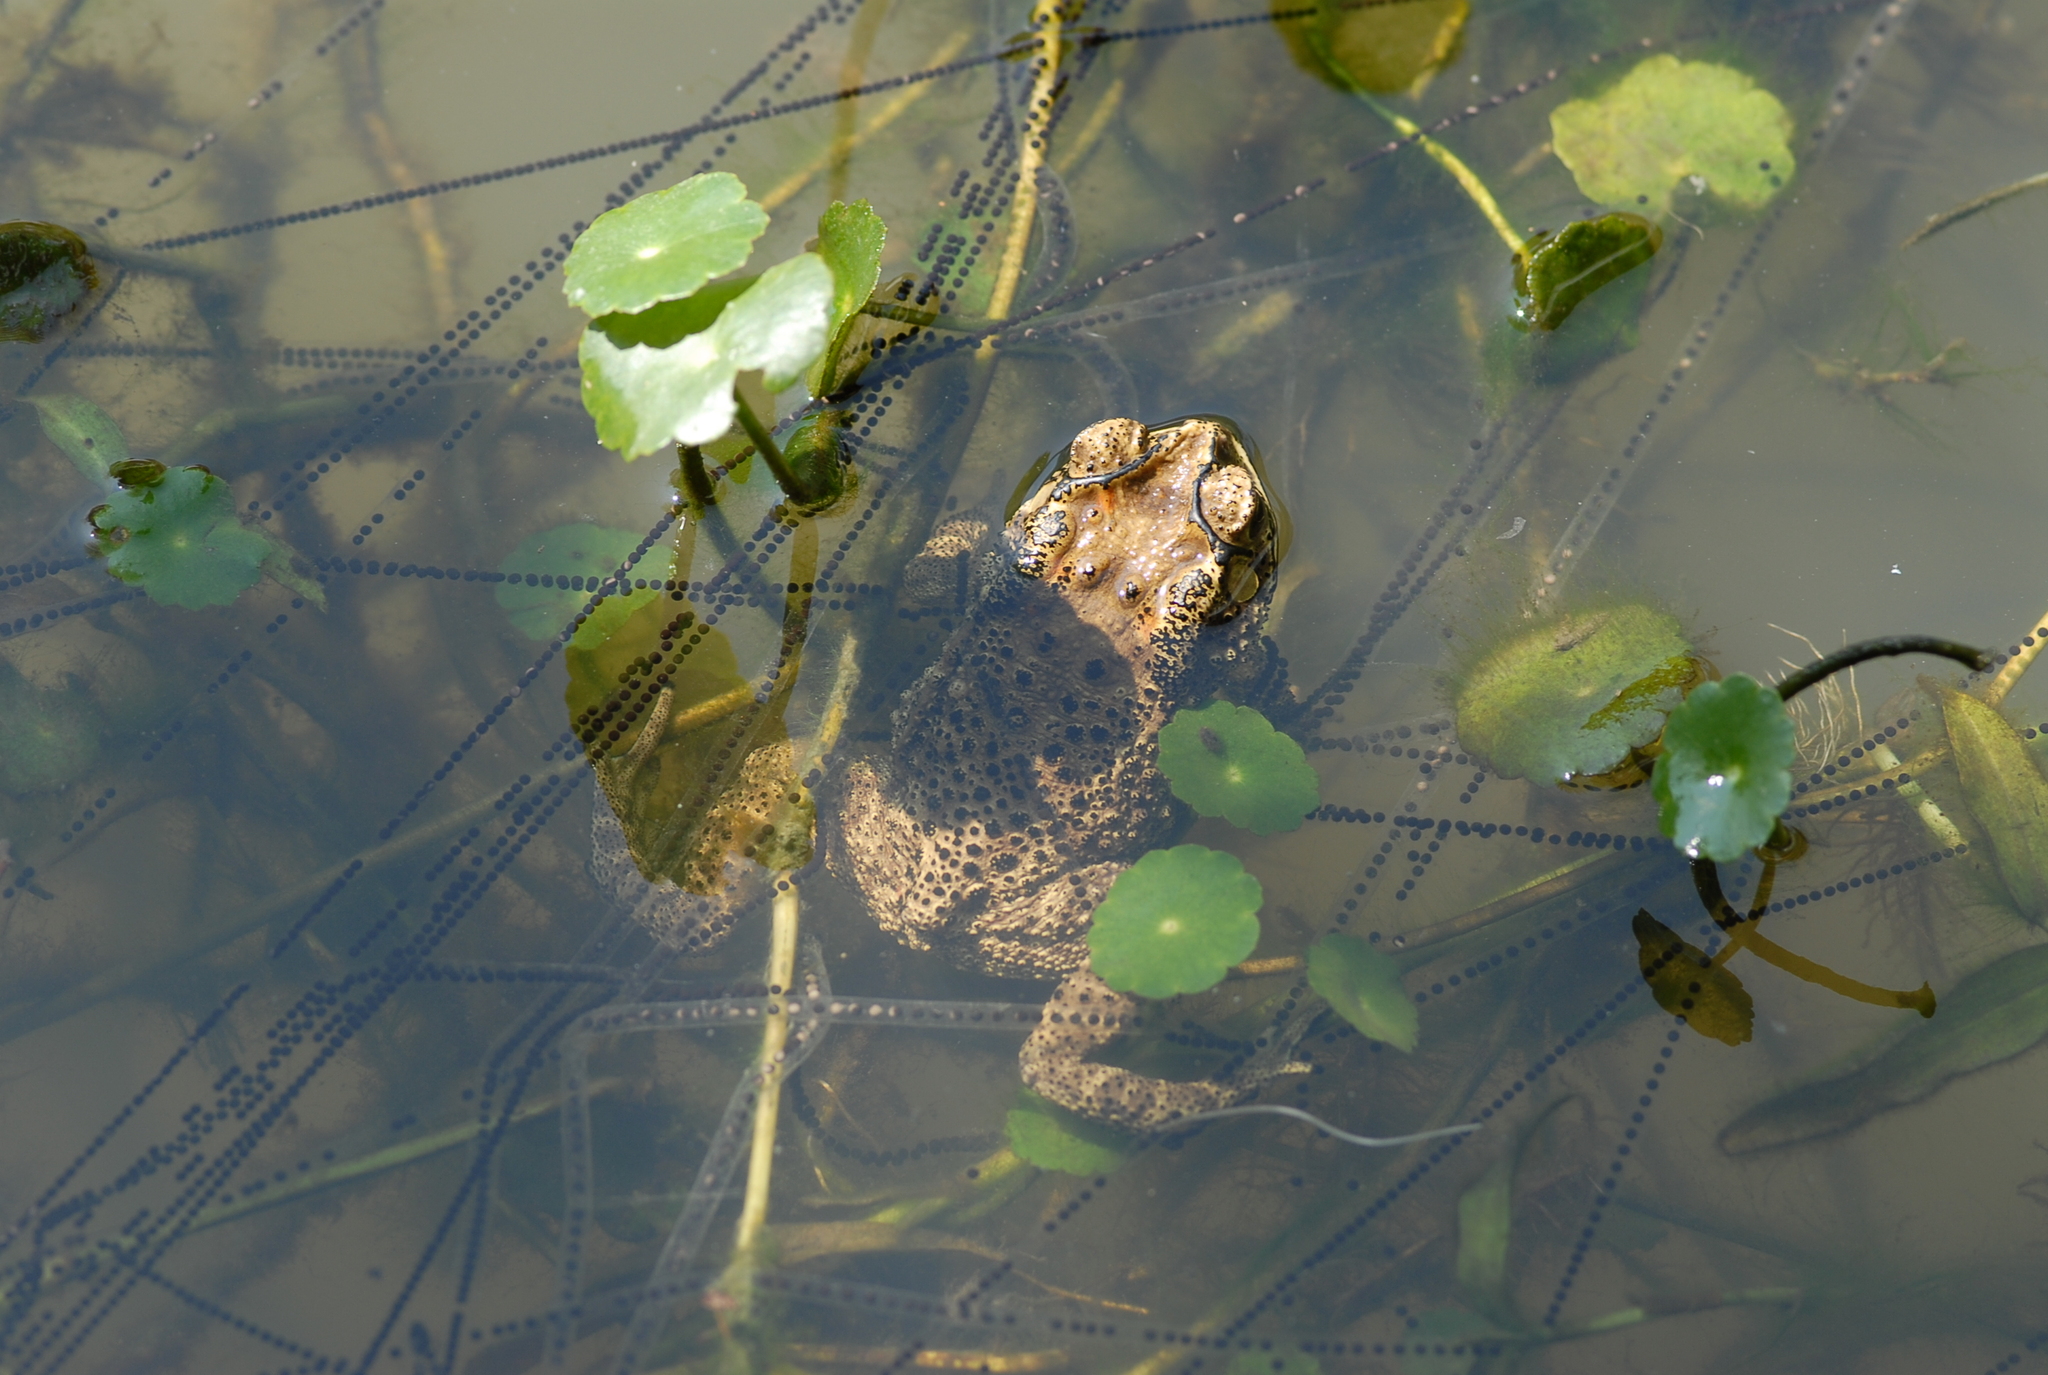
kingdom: Animalia
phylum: Chordata
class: Amphibia
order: Anura
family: Bufonidae
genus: Duttaphrynus
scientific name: Duttaphrynus melanostictus
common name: Common sunda toad
